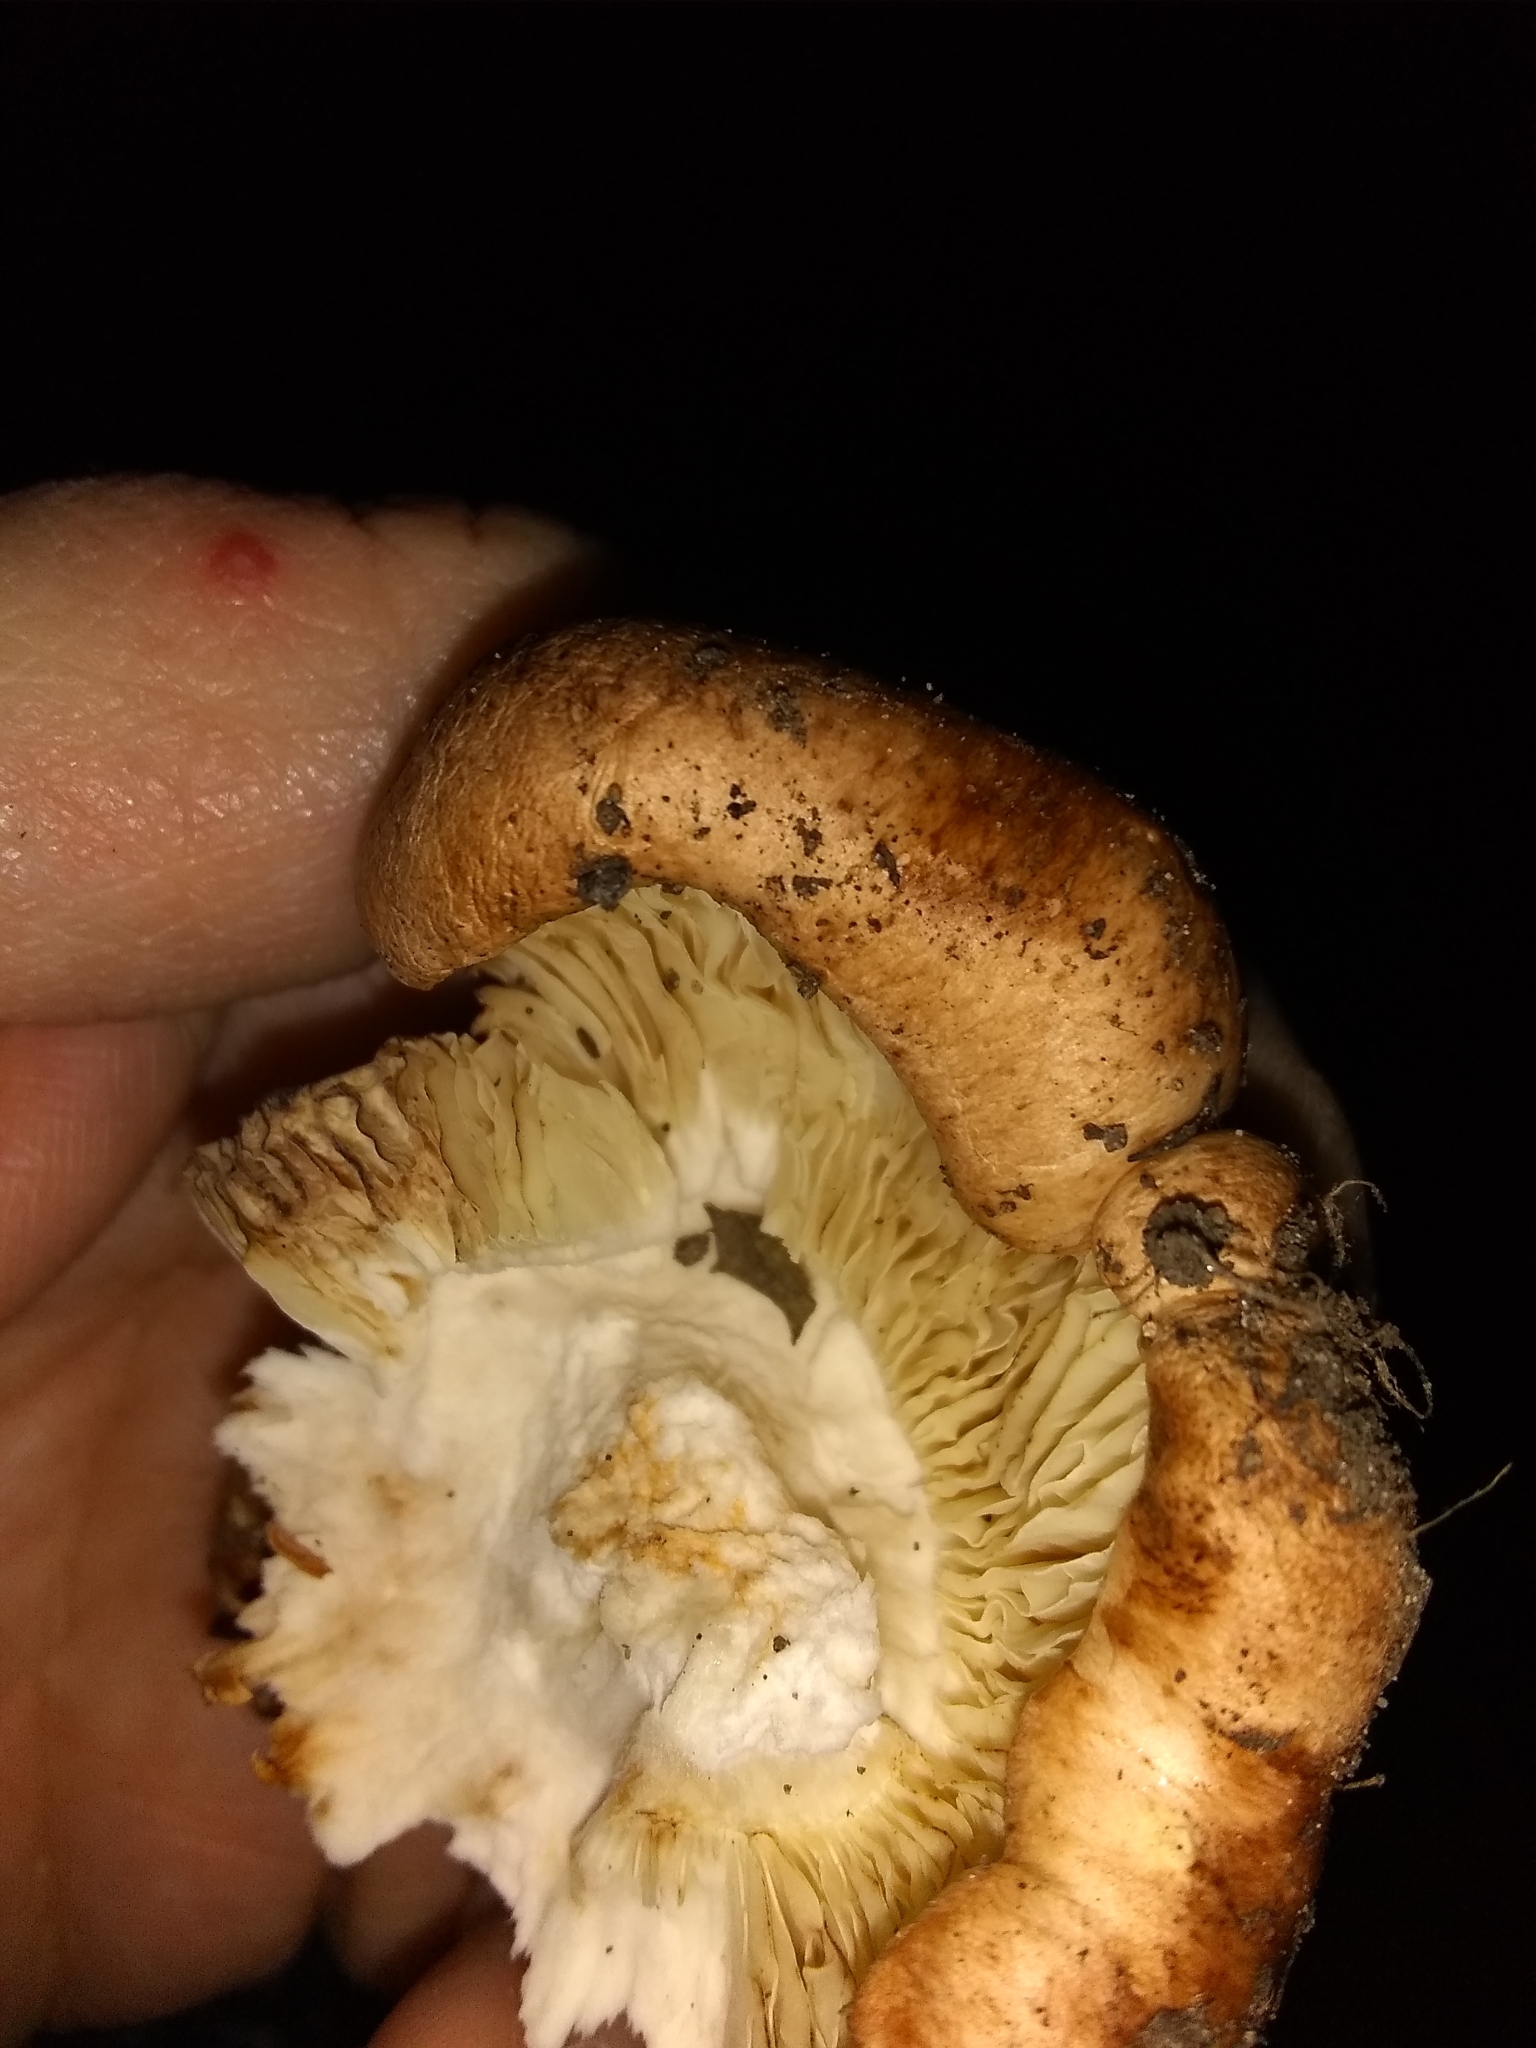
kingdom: Fungi
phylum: Basidiomycota
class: Agaricomycetes
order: Agaricales
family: Tricholomataceae
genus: Melanoleuca
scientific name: Melanoleuca dryophila
